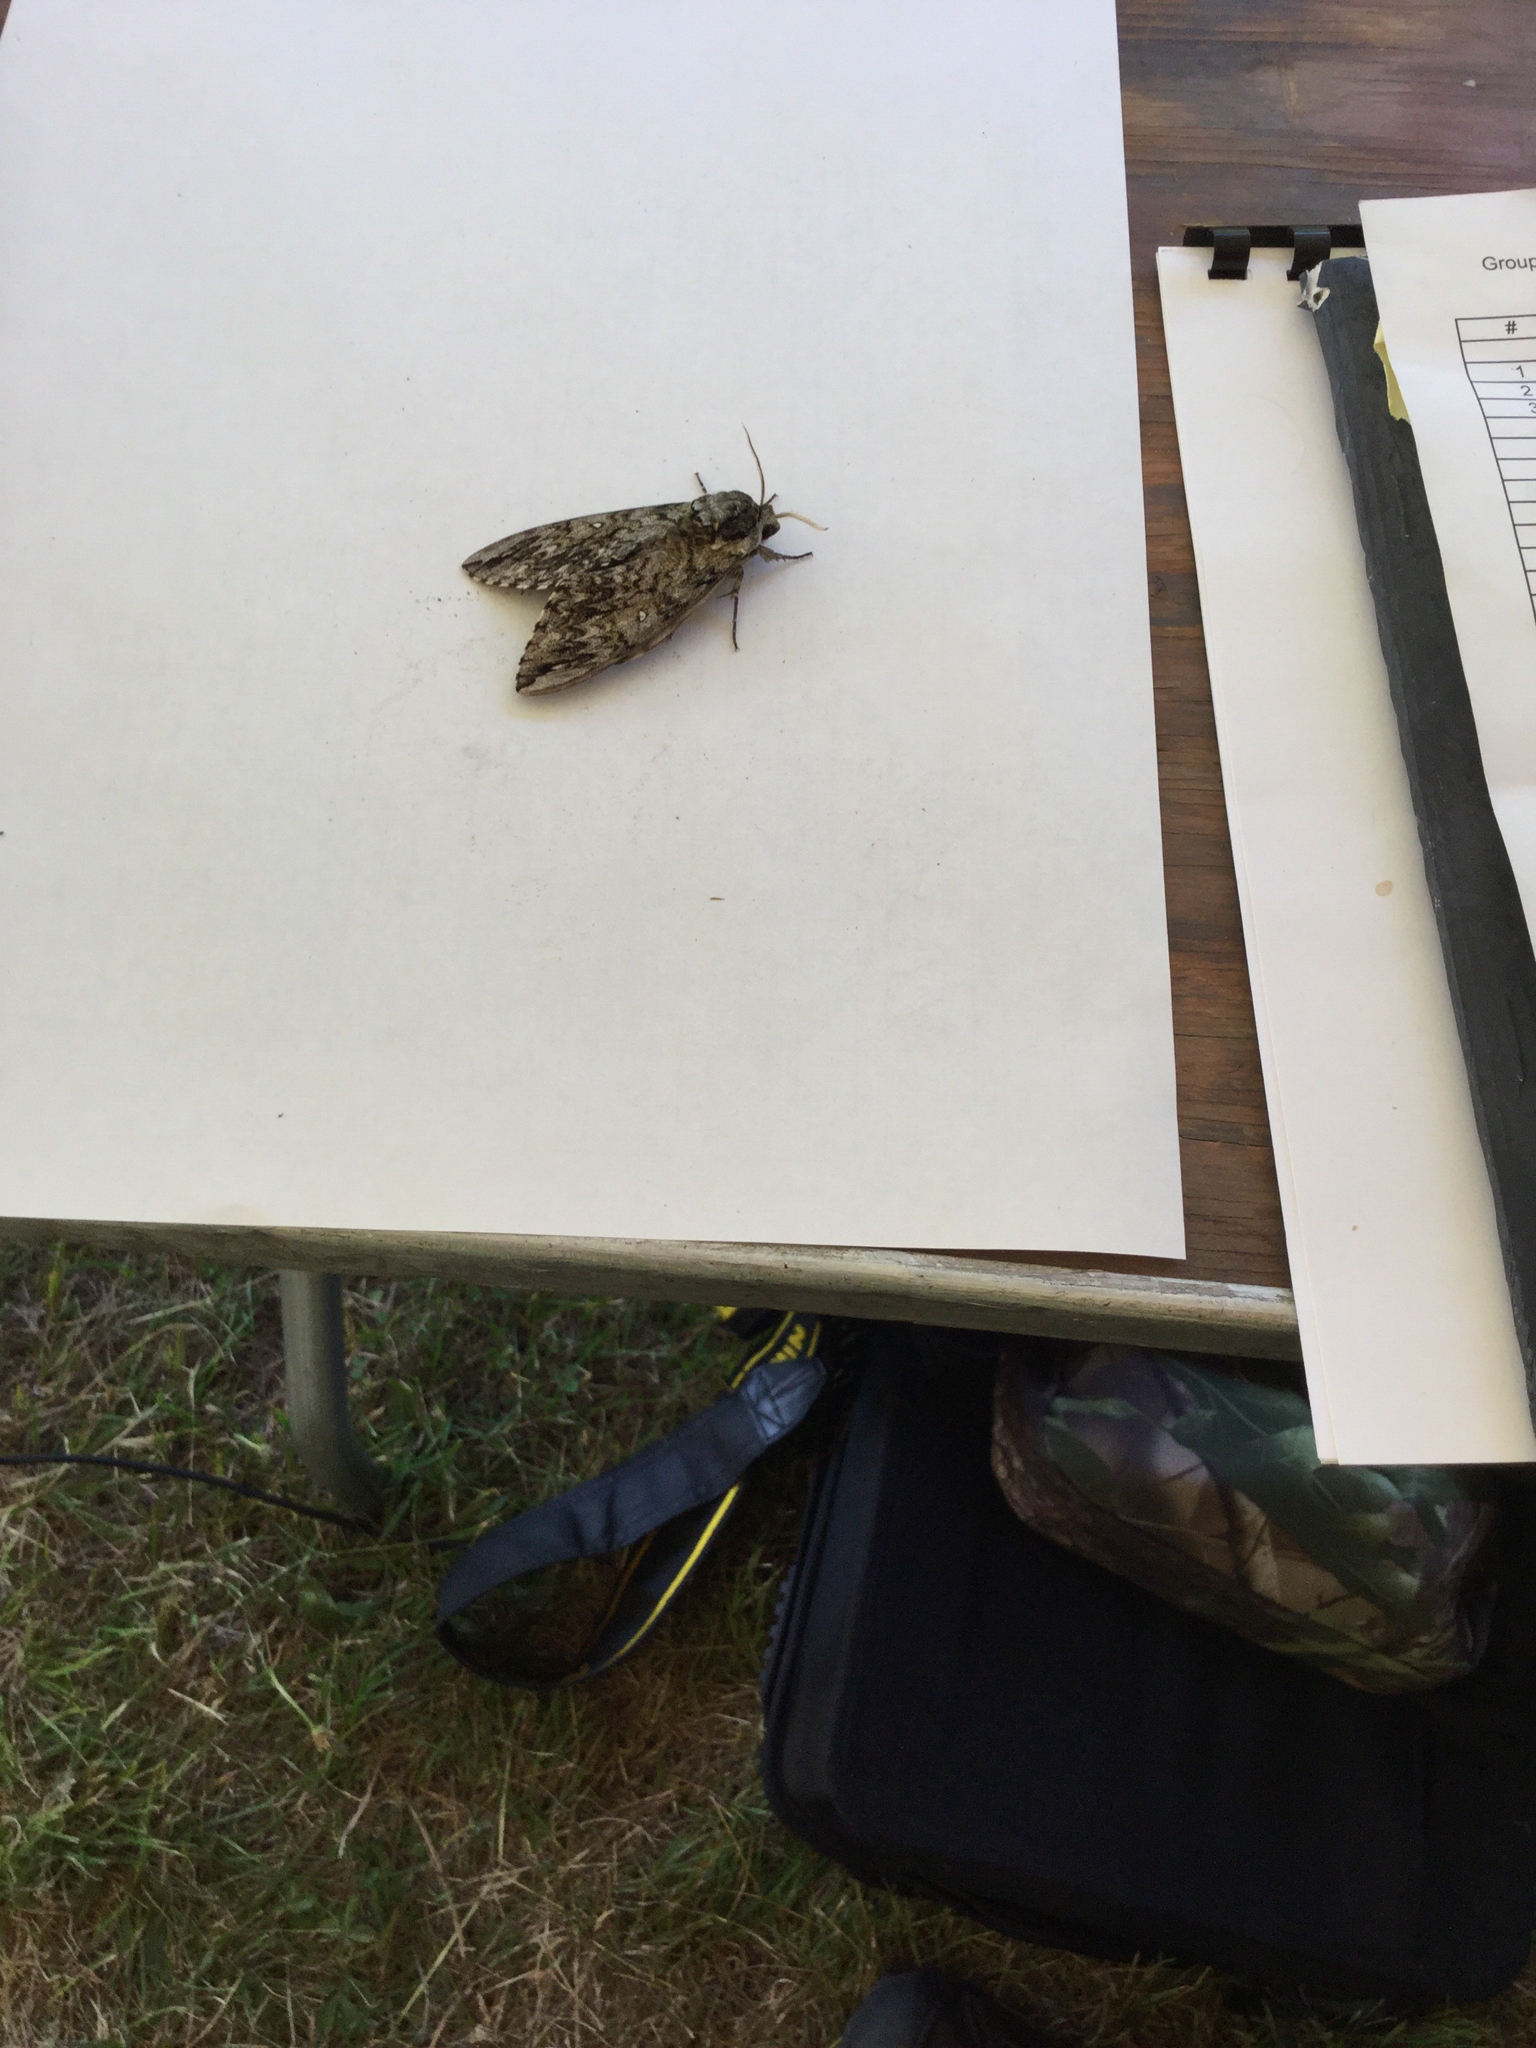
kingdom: Animalia
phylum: Arthropoda
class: Insecta
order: Lepidoptera
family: Sphingidae
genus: Ceratomia
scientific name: Ceratomia undulosa
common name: Waved sphinx
